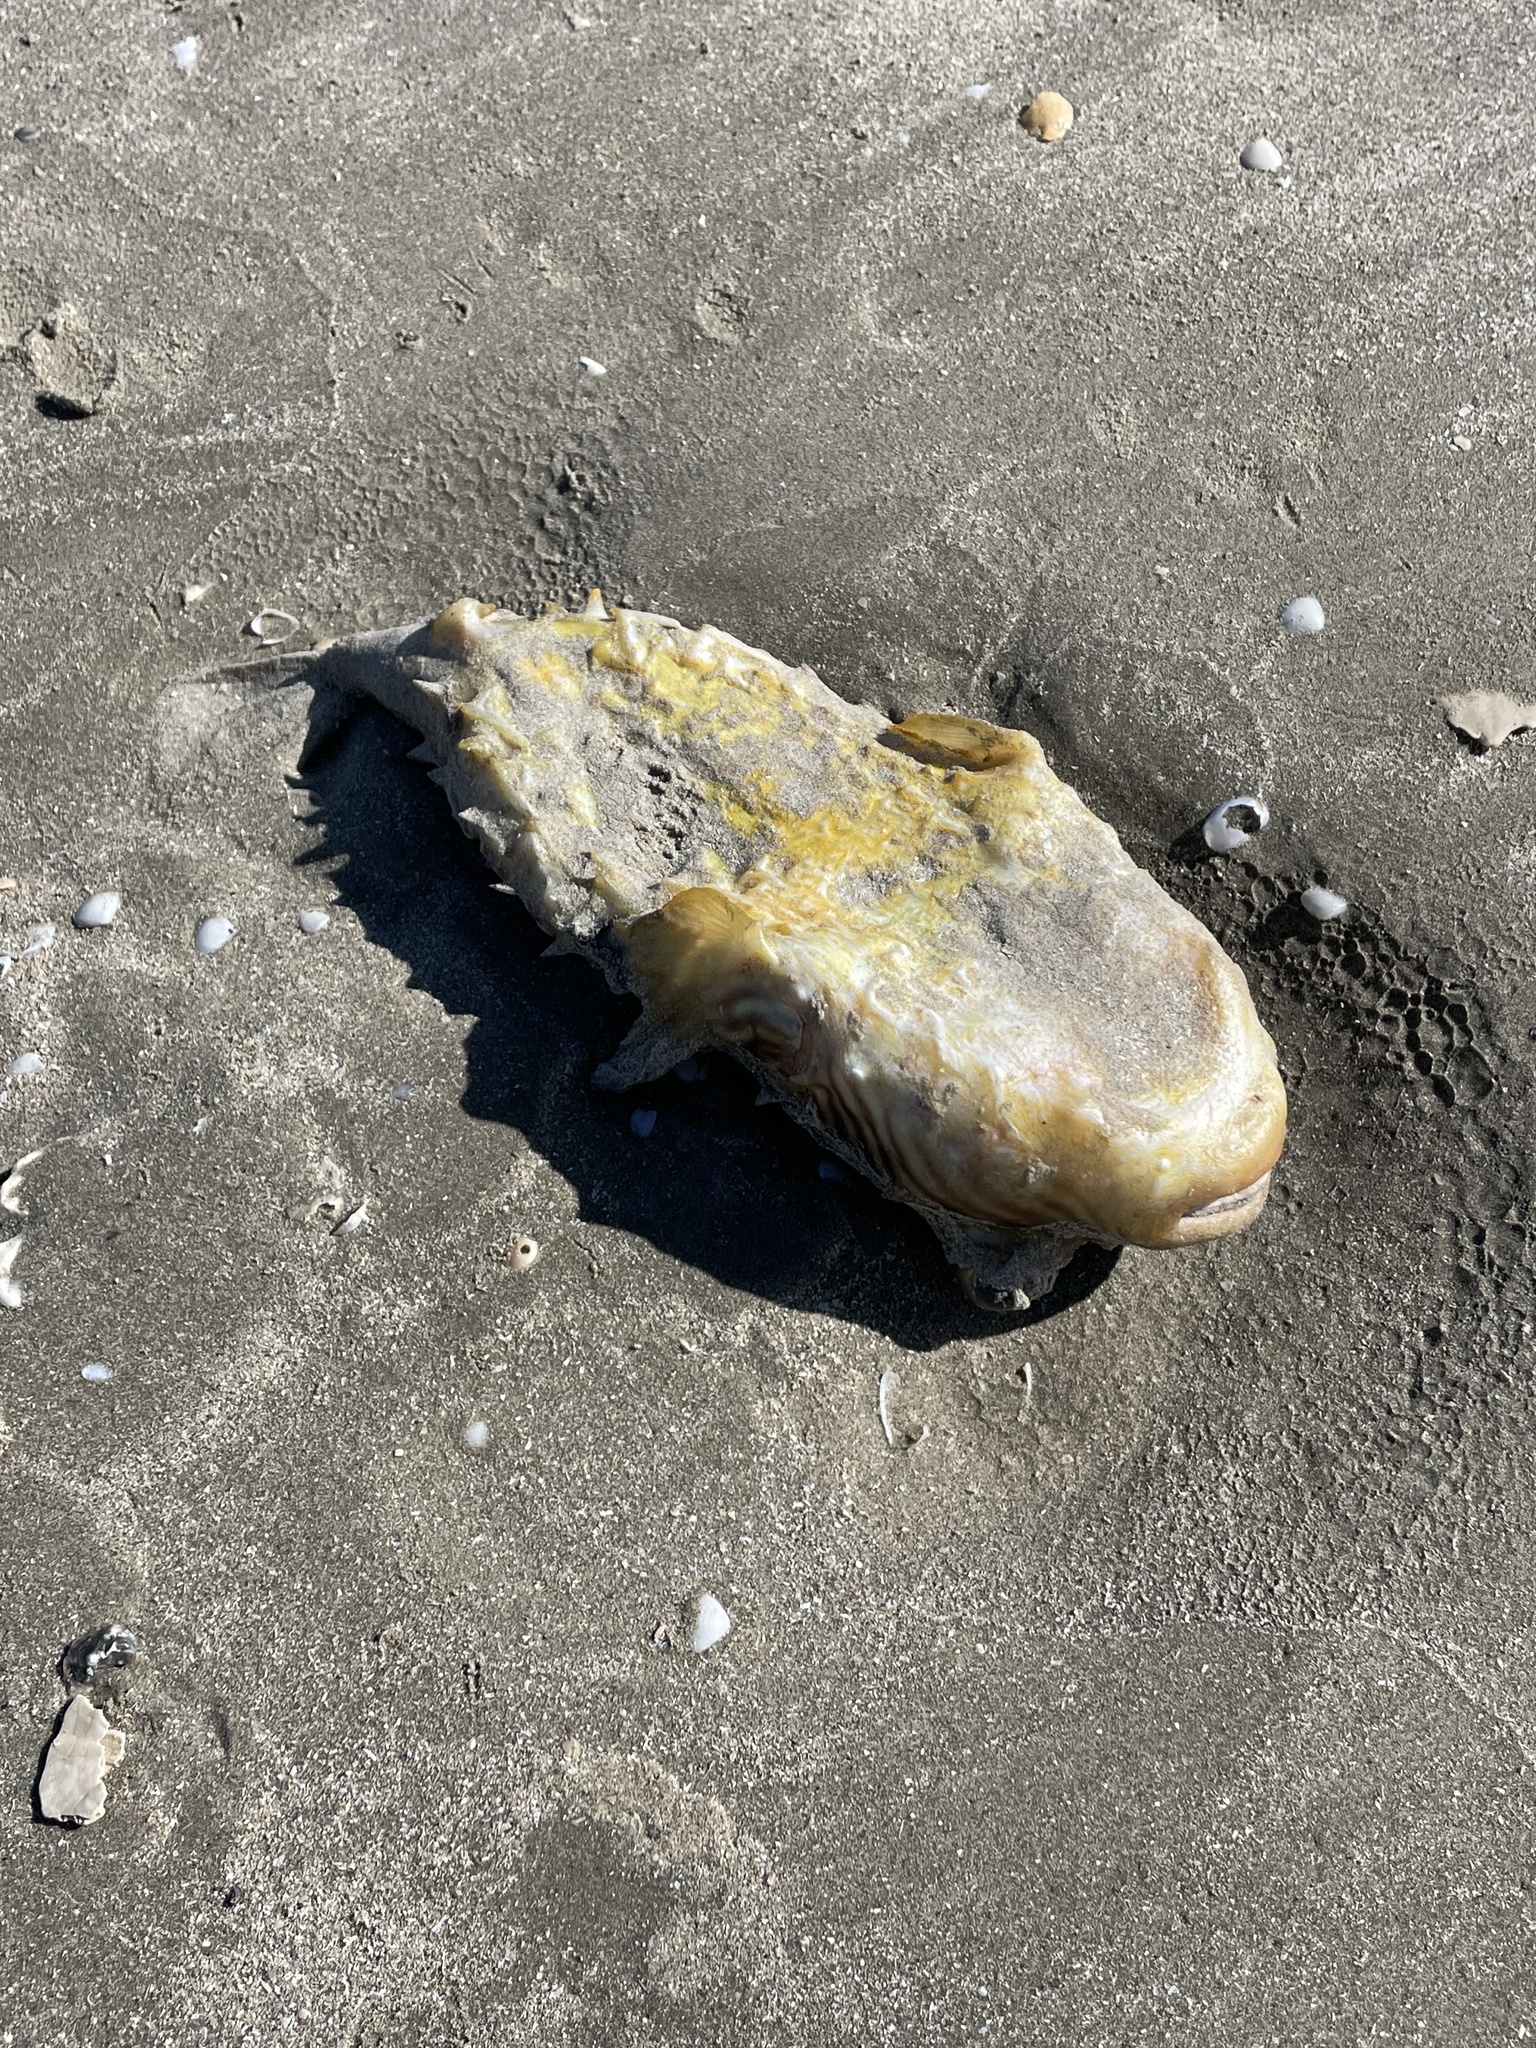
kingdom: Animalia
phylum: Chordata
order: Tetraodontiformes
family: Diodontidae
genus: Chilomycterus
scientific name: Chilomycterus schoepfii
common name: Striped burrfish
